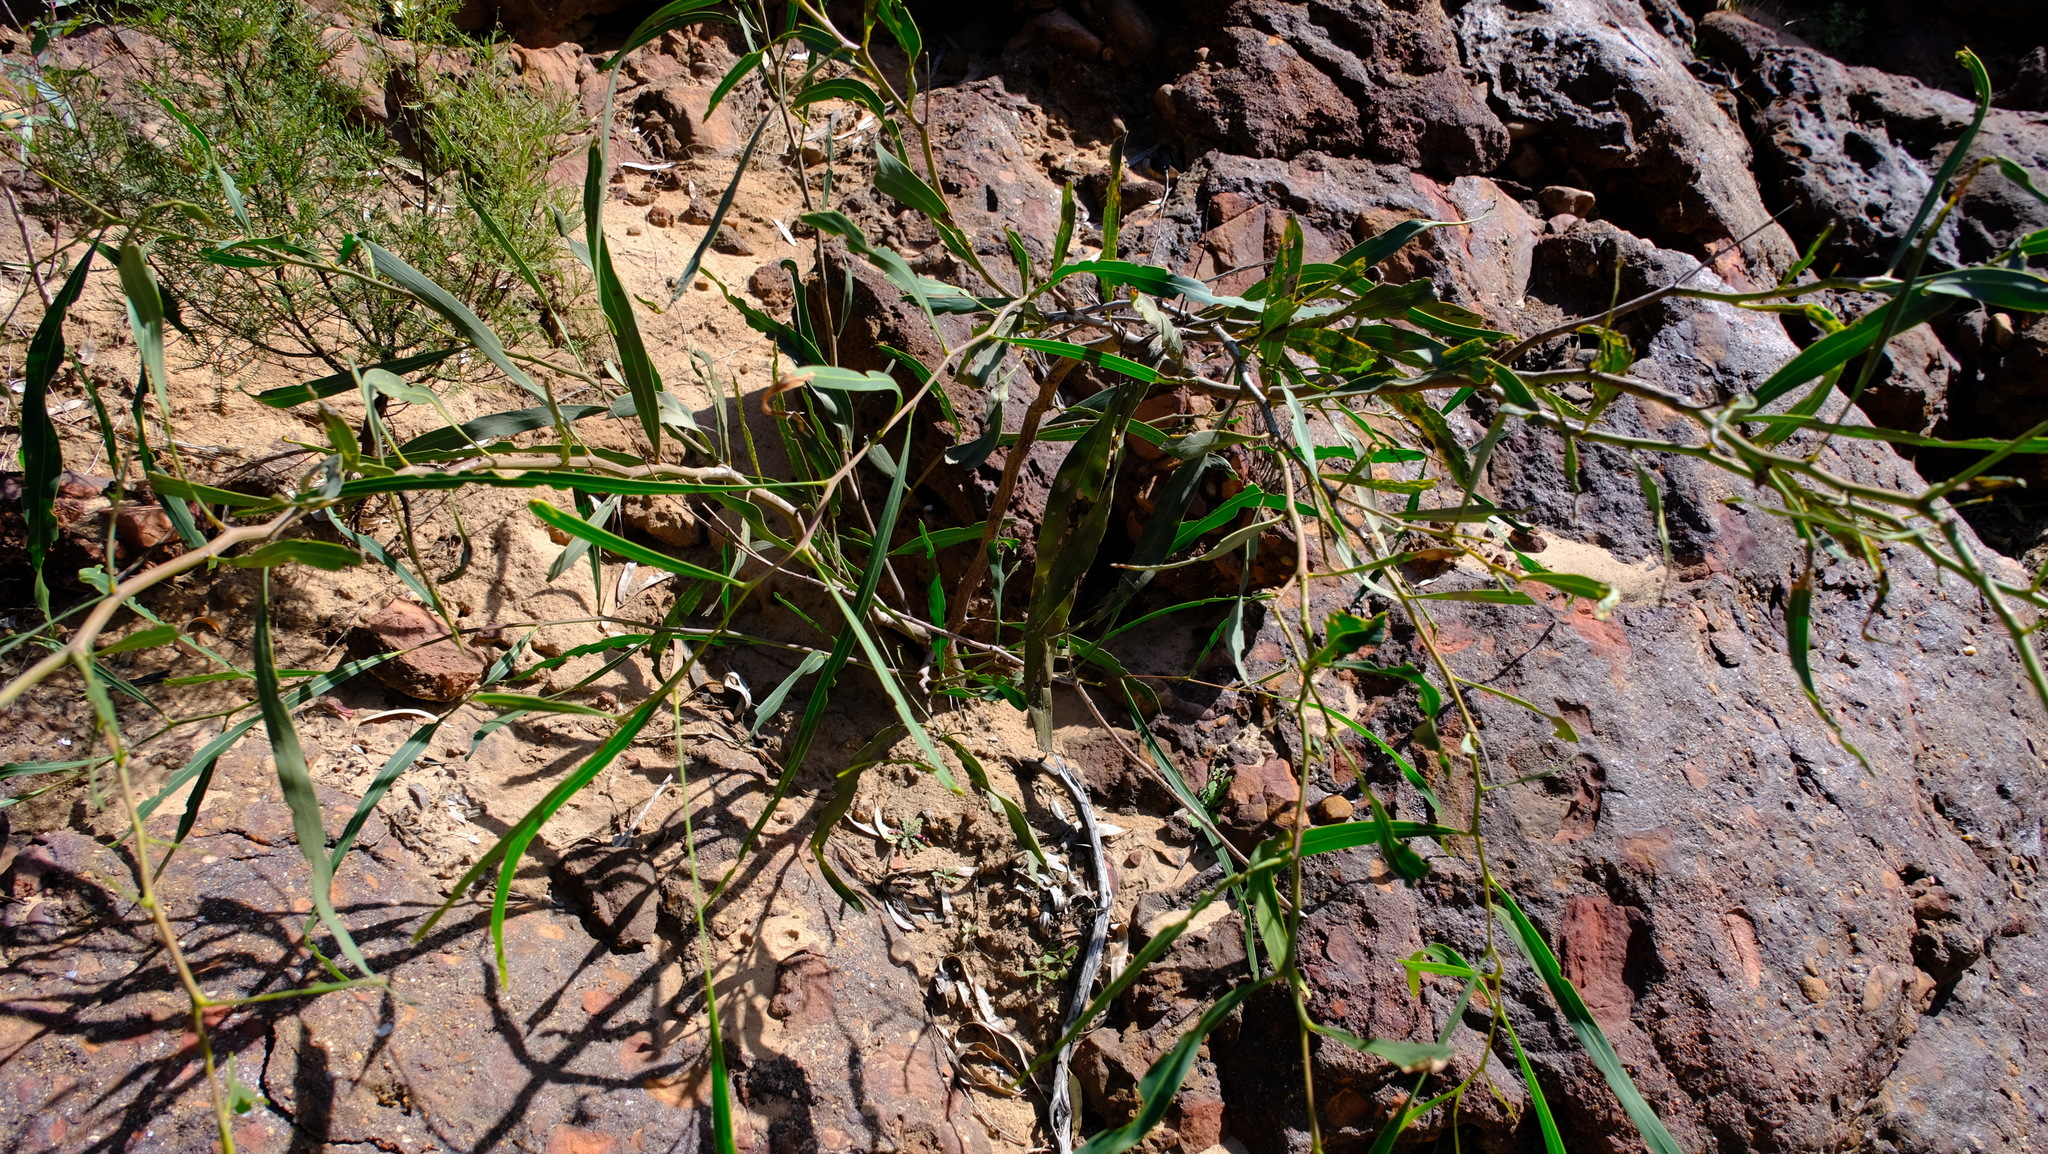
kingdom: Plantae
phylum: Tracheophyta
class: Magnoliopsida
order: Fabales
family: Fabaceae
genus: Acacia
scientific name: Acacia signata
